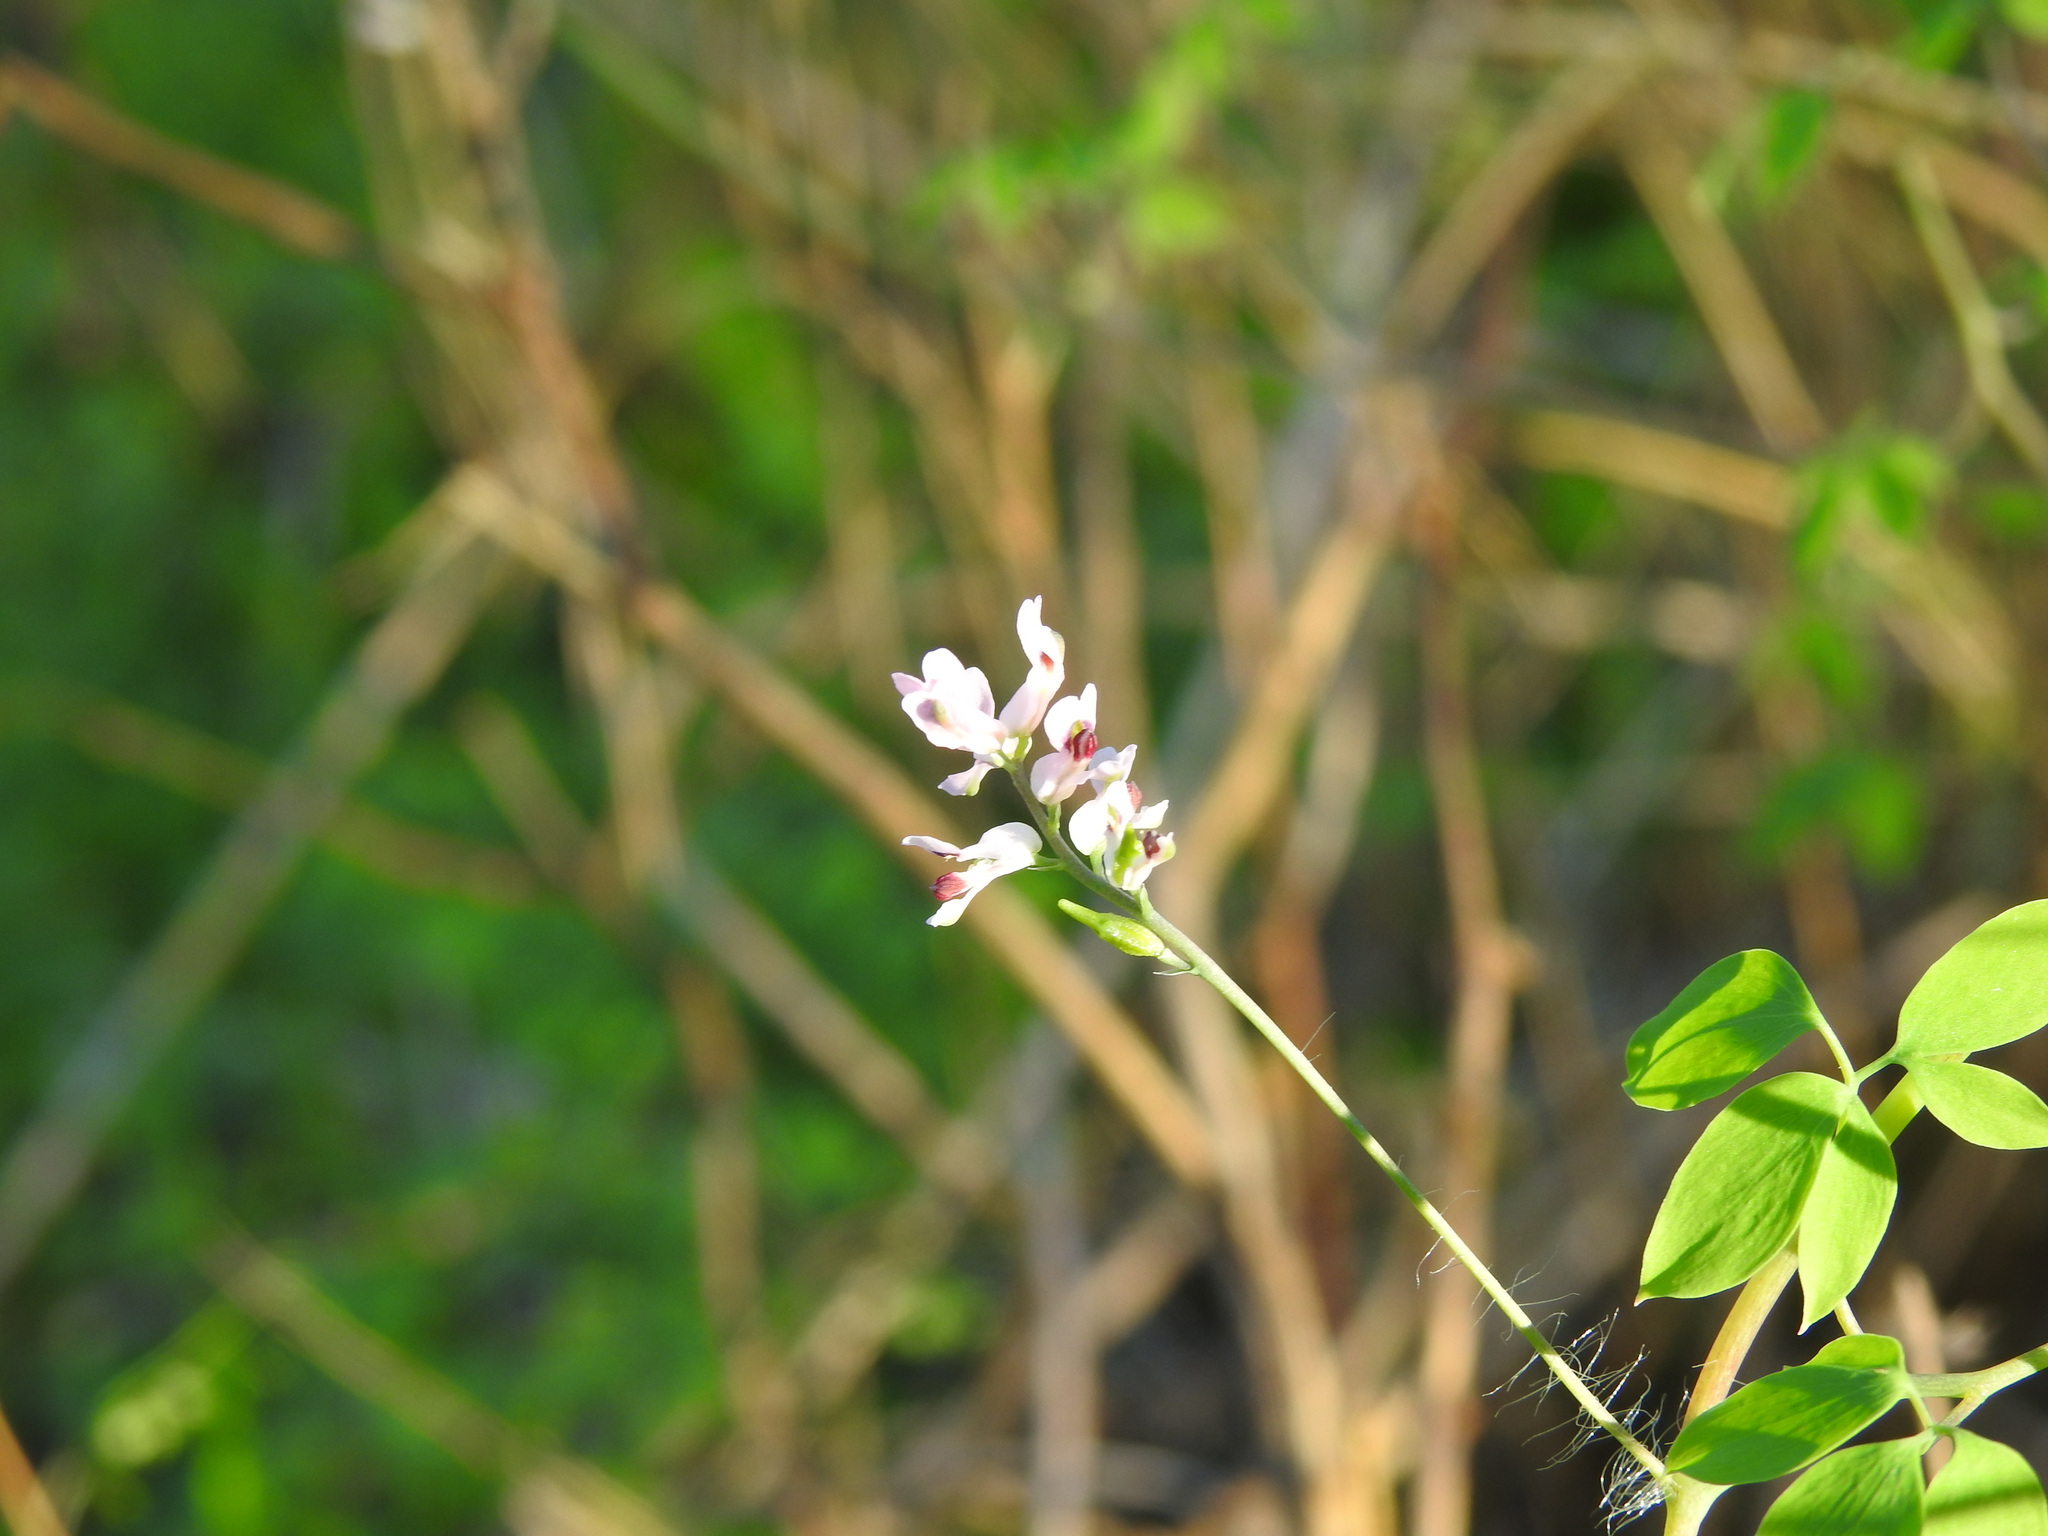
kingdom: Plantae
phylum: Tracheophyta
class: Magnoliopsida
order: Ranunculales
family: Papaveraceae
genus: Ceratocapnos
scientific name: Ceratocapnos heterocarpa
